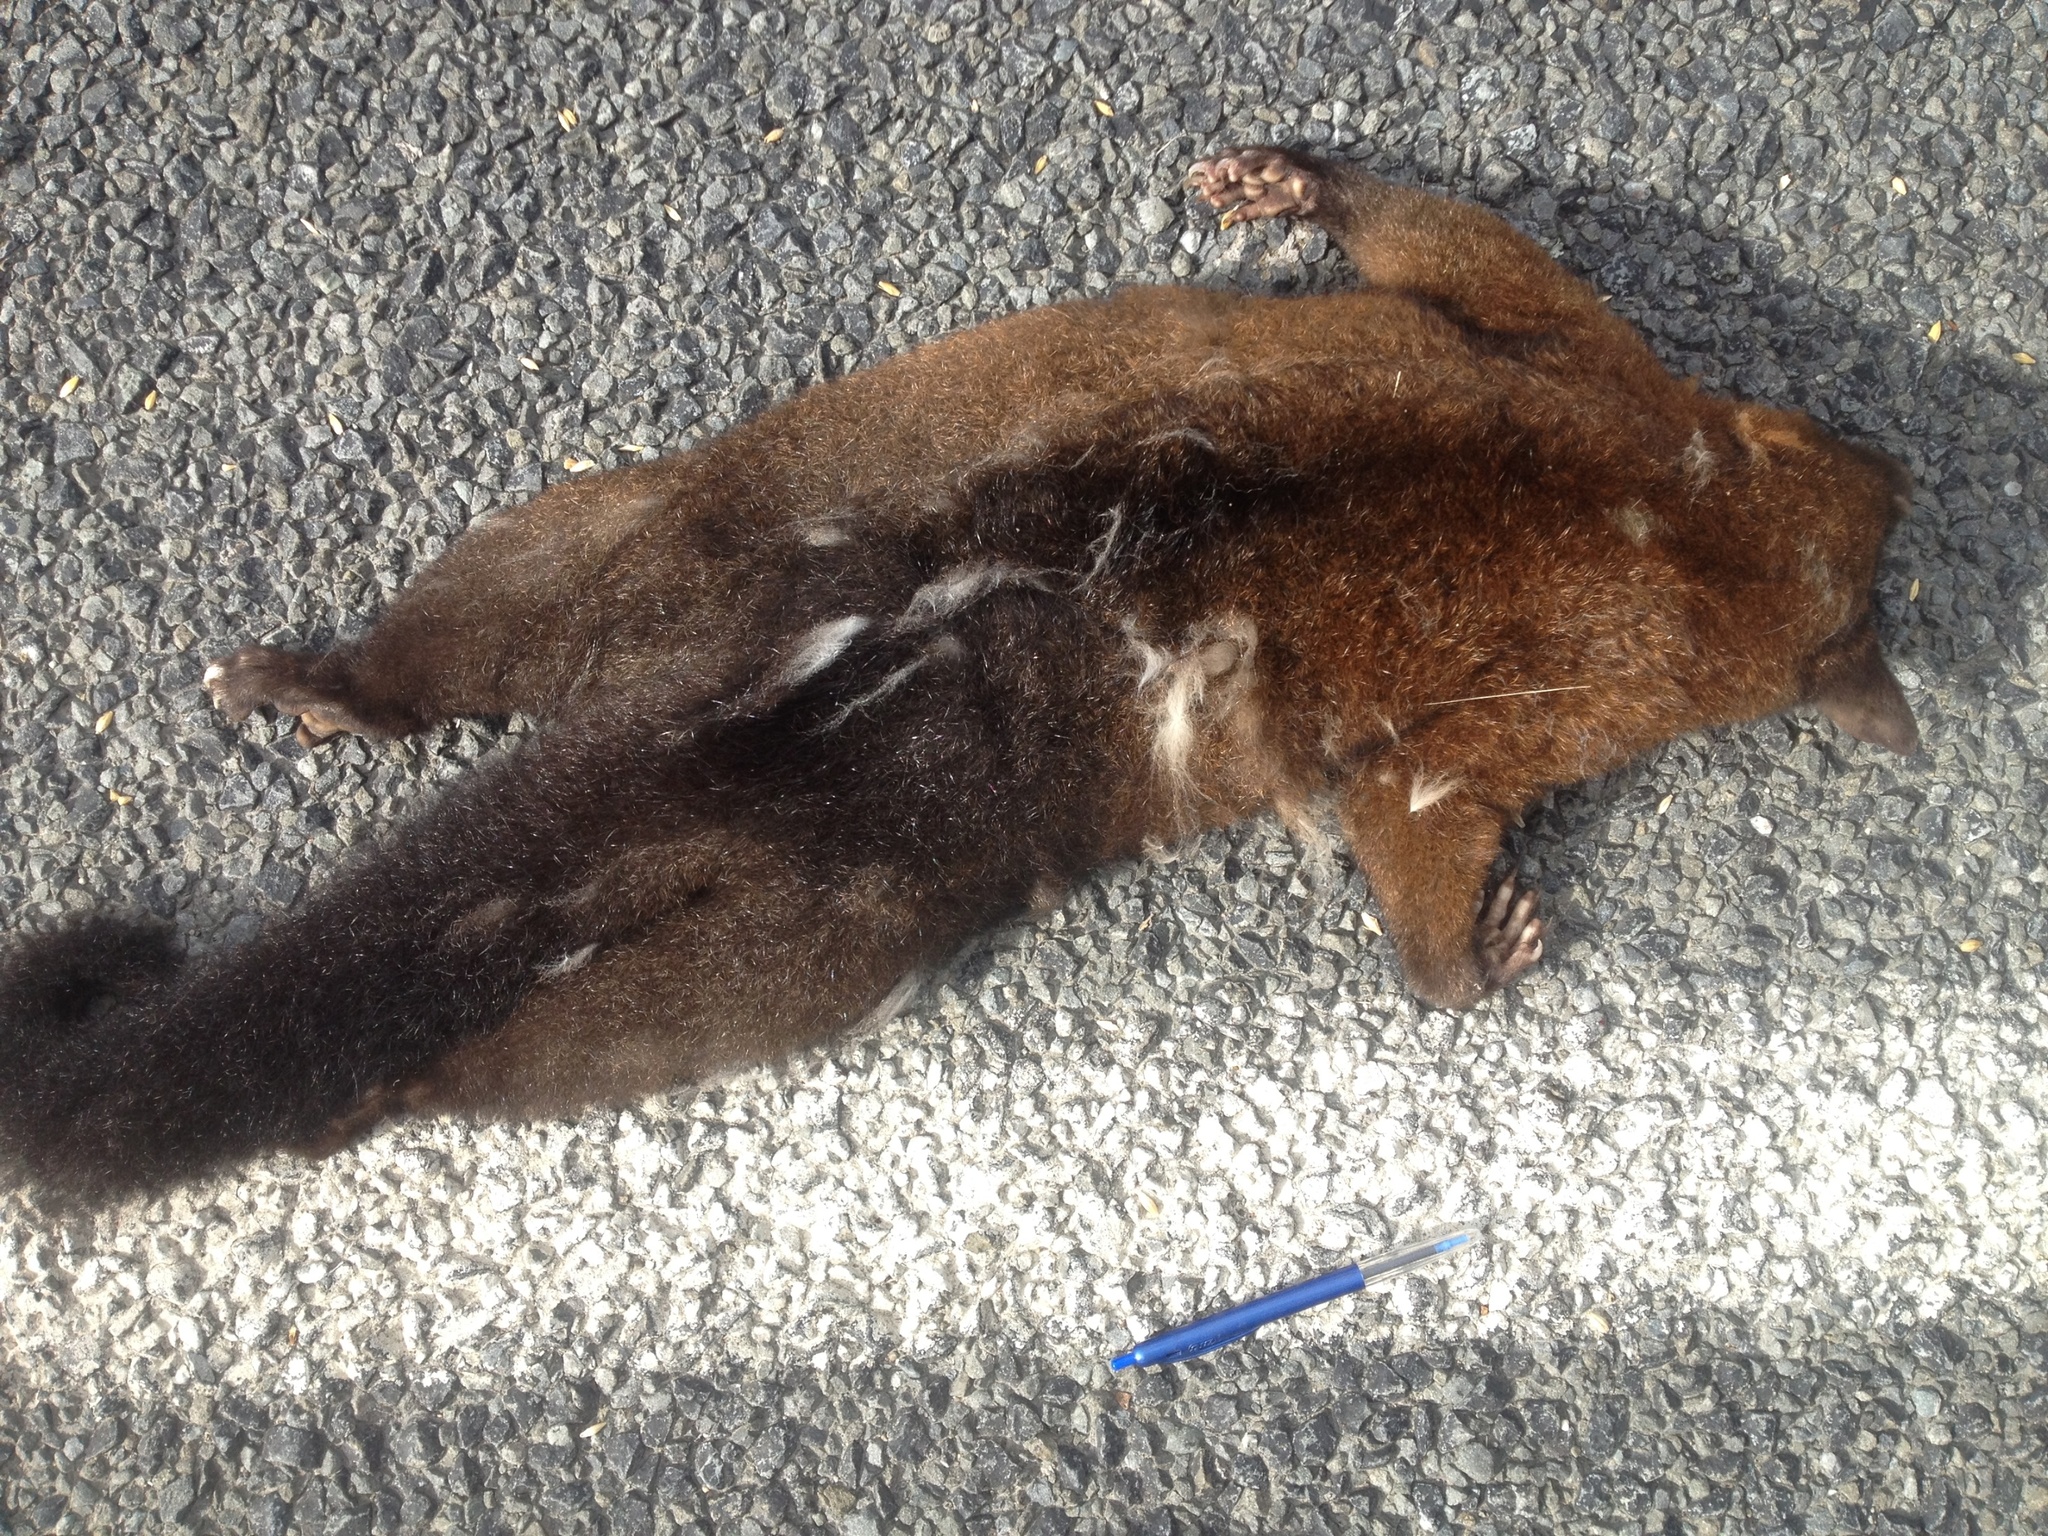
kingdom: Animalia
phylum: Chordata
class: Mammalia
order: Diprotodontia
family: Phalangeridae
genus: Trichosurus
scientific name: Trichosurus vulpecula
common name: Common brushtail
